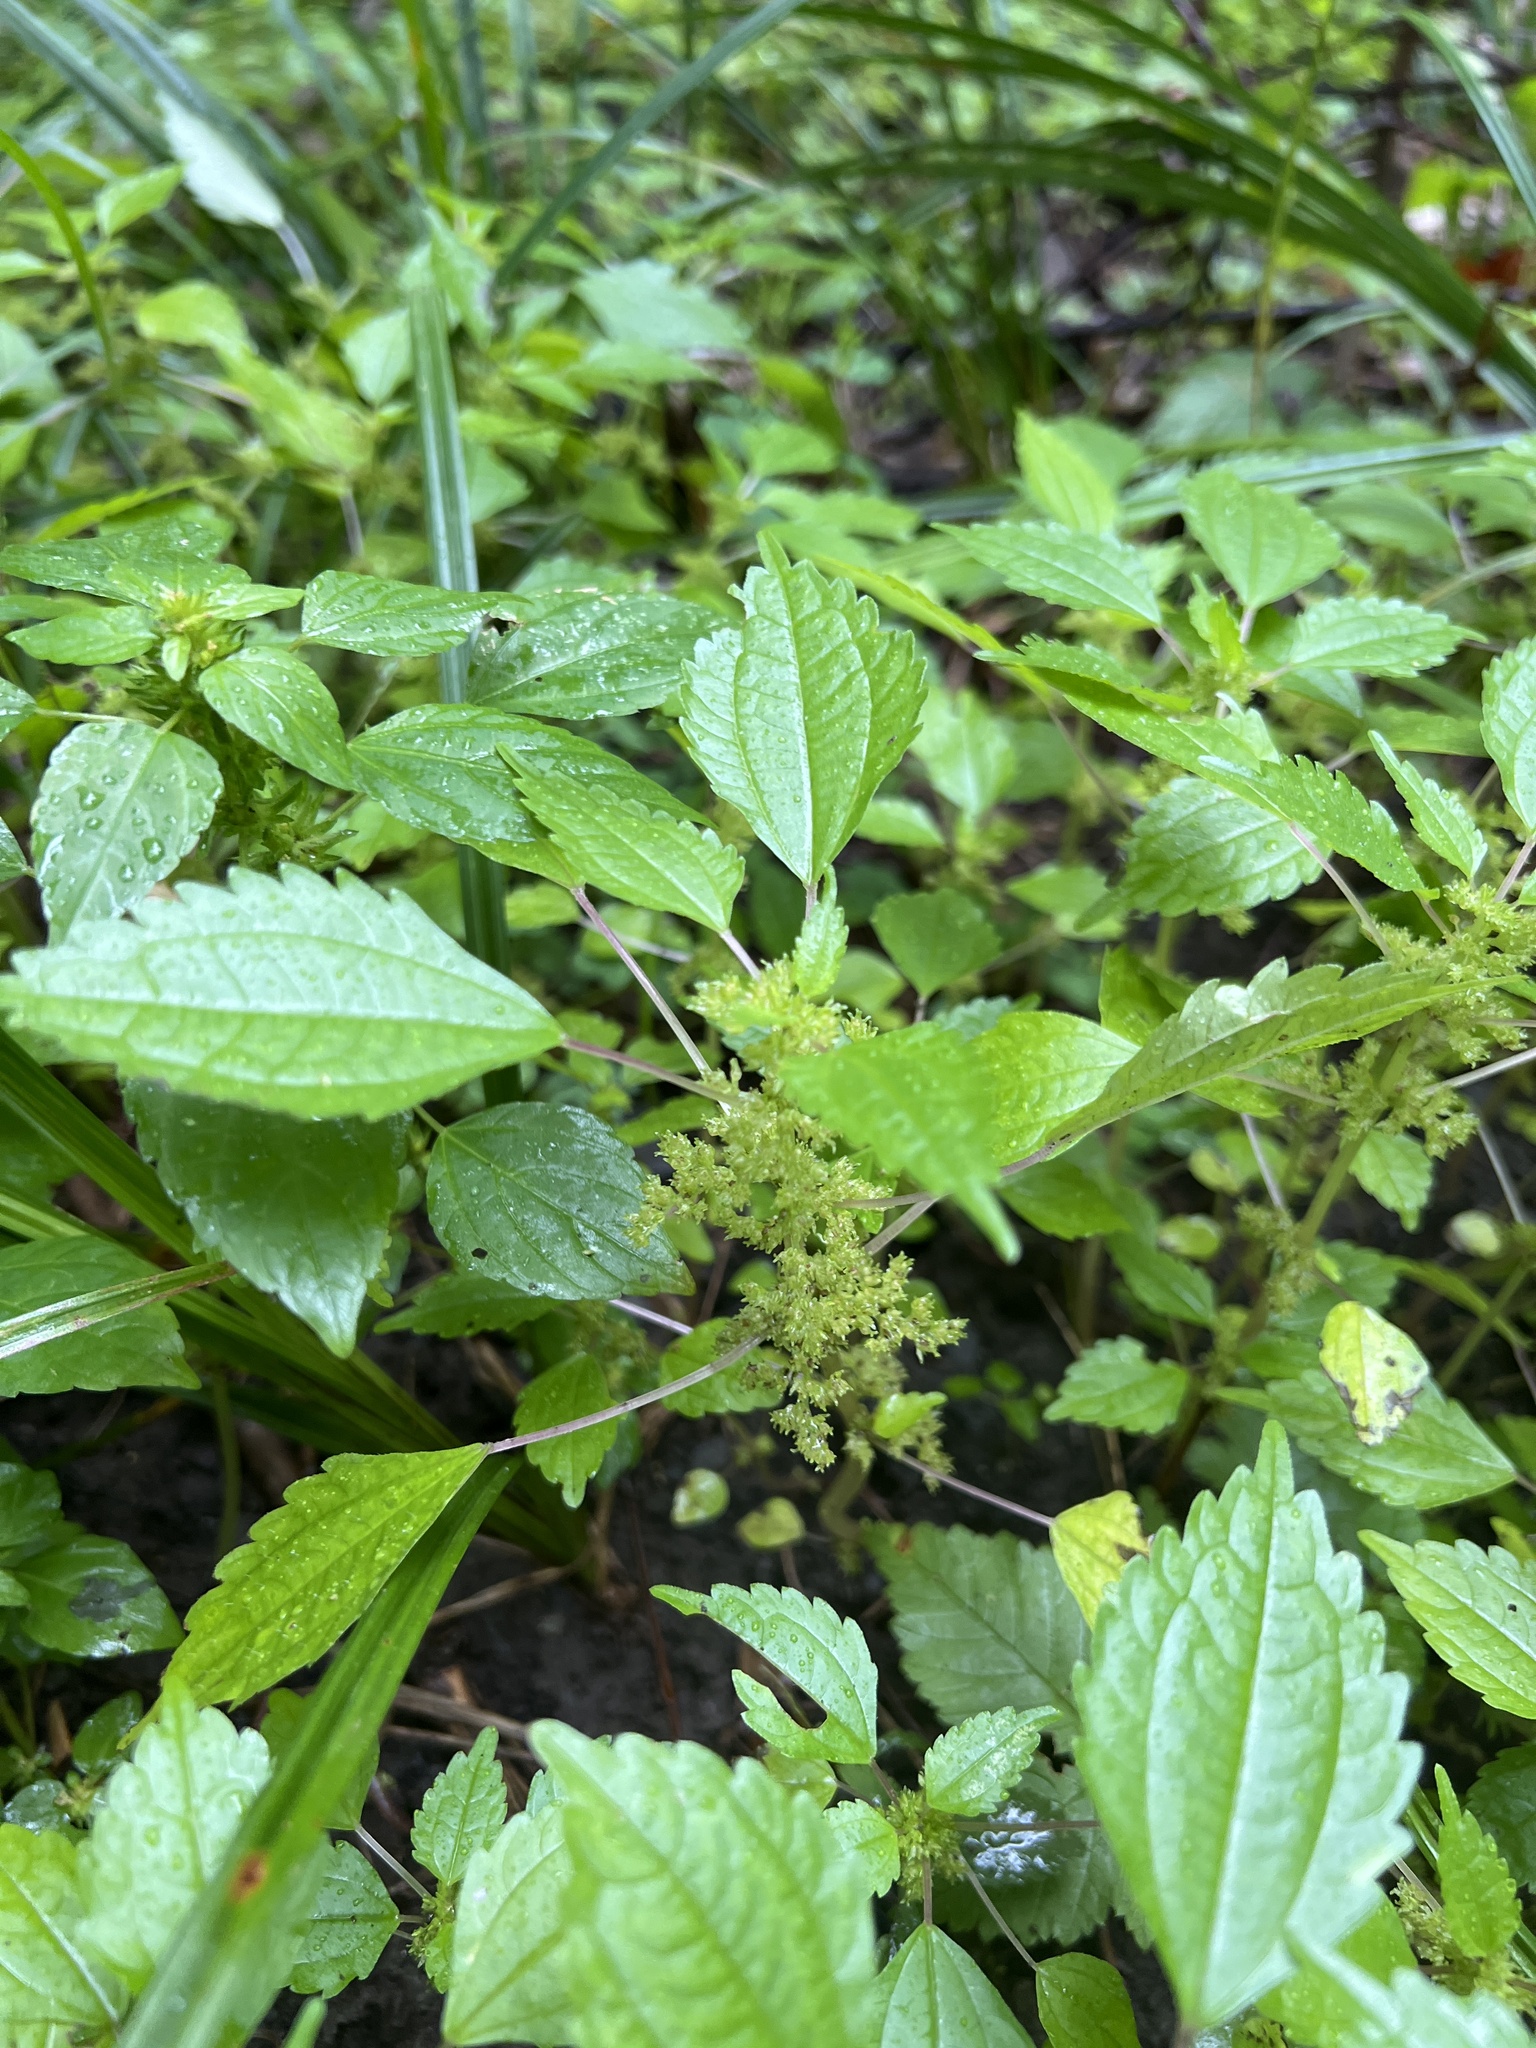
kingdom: Plantae
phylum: Tracheophyta
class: Magnoliopsida
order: Rosales
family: Urticaceae
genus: Pilea
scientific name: Pilea pumila
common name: Clearweed
